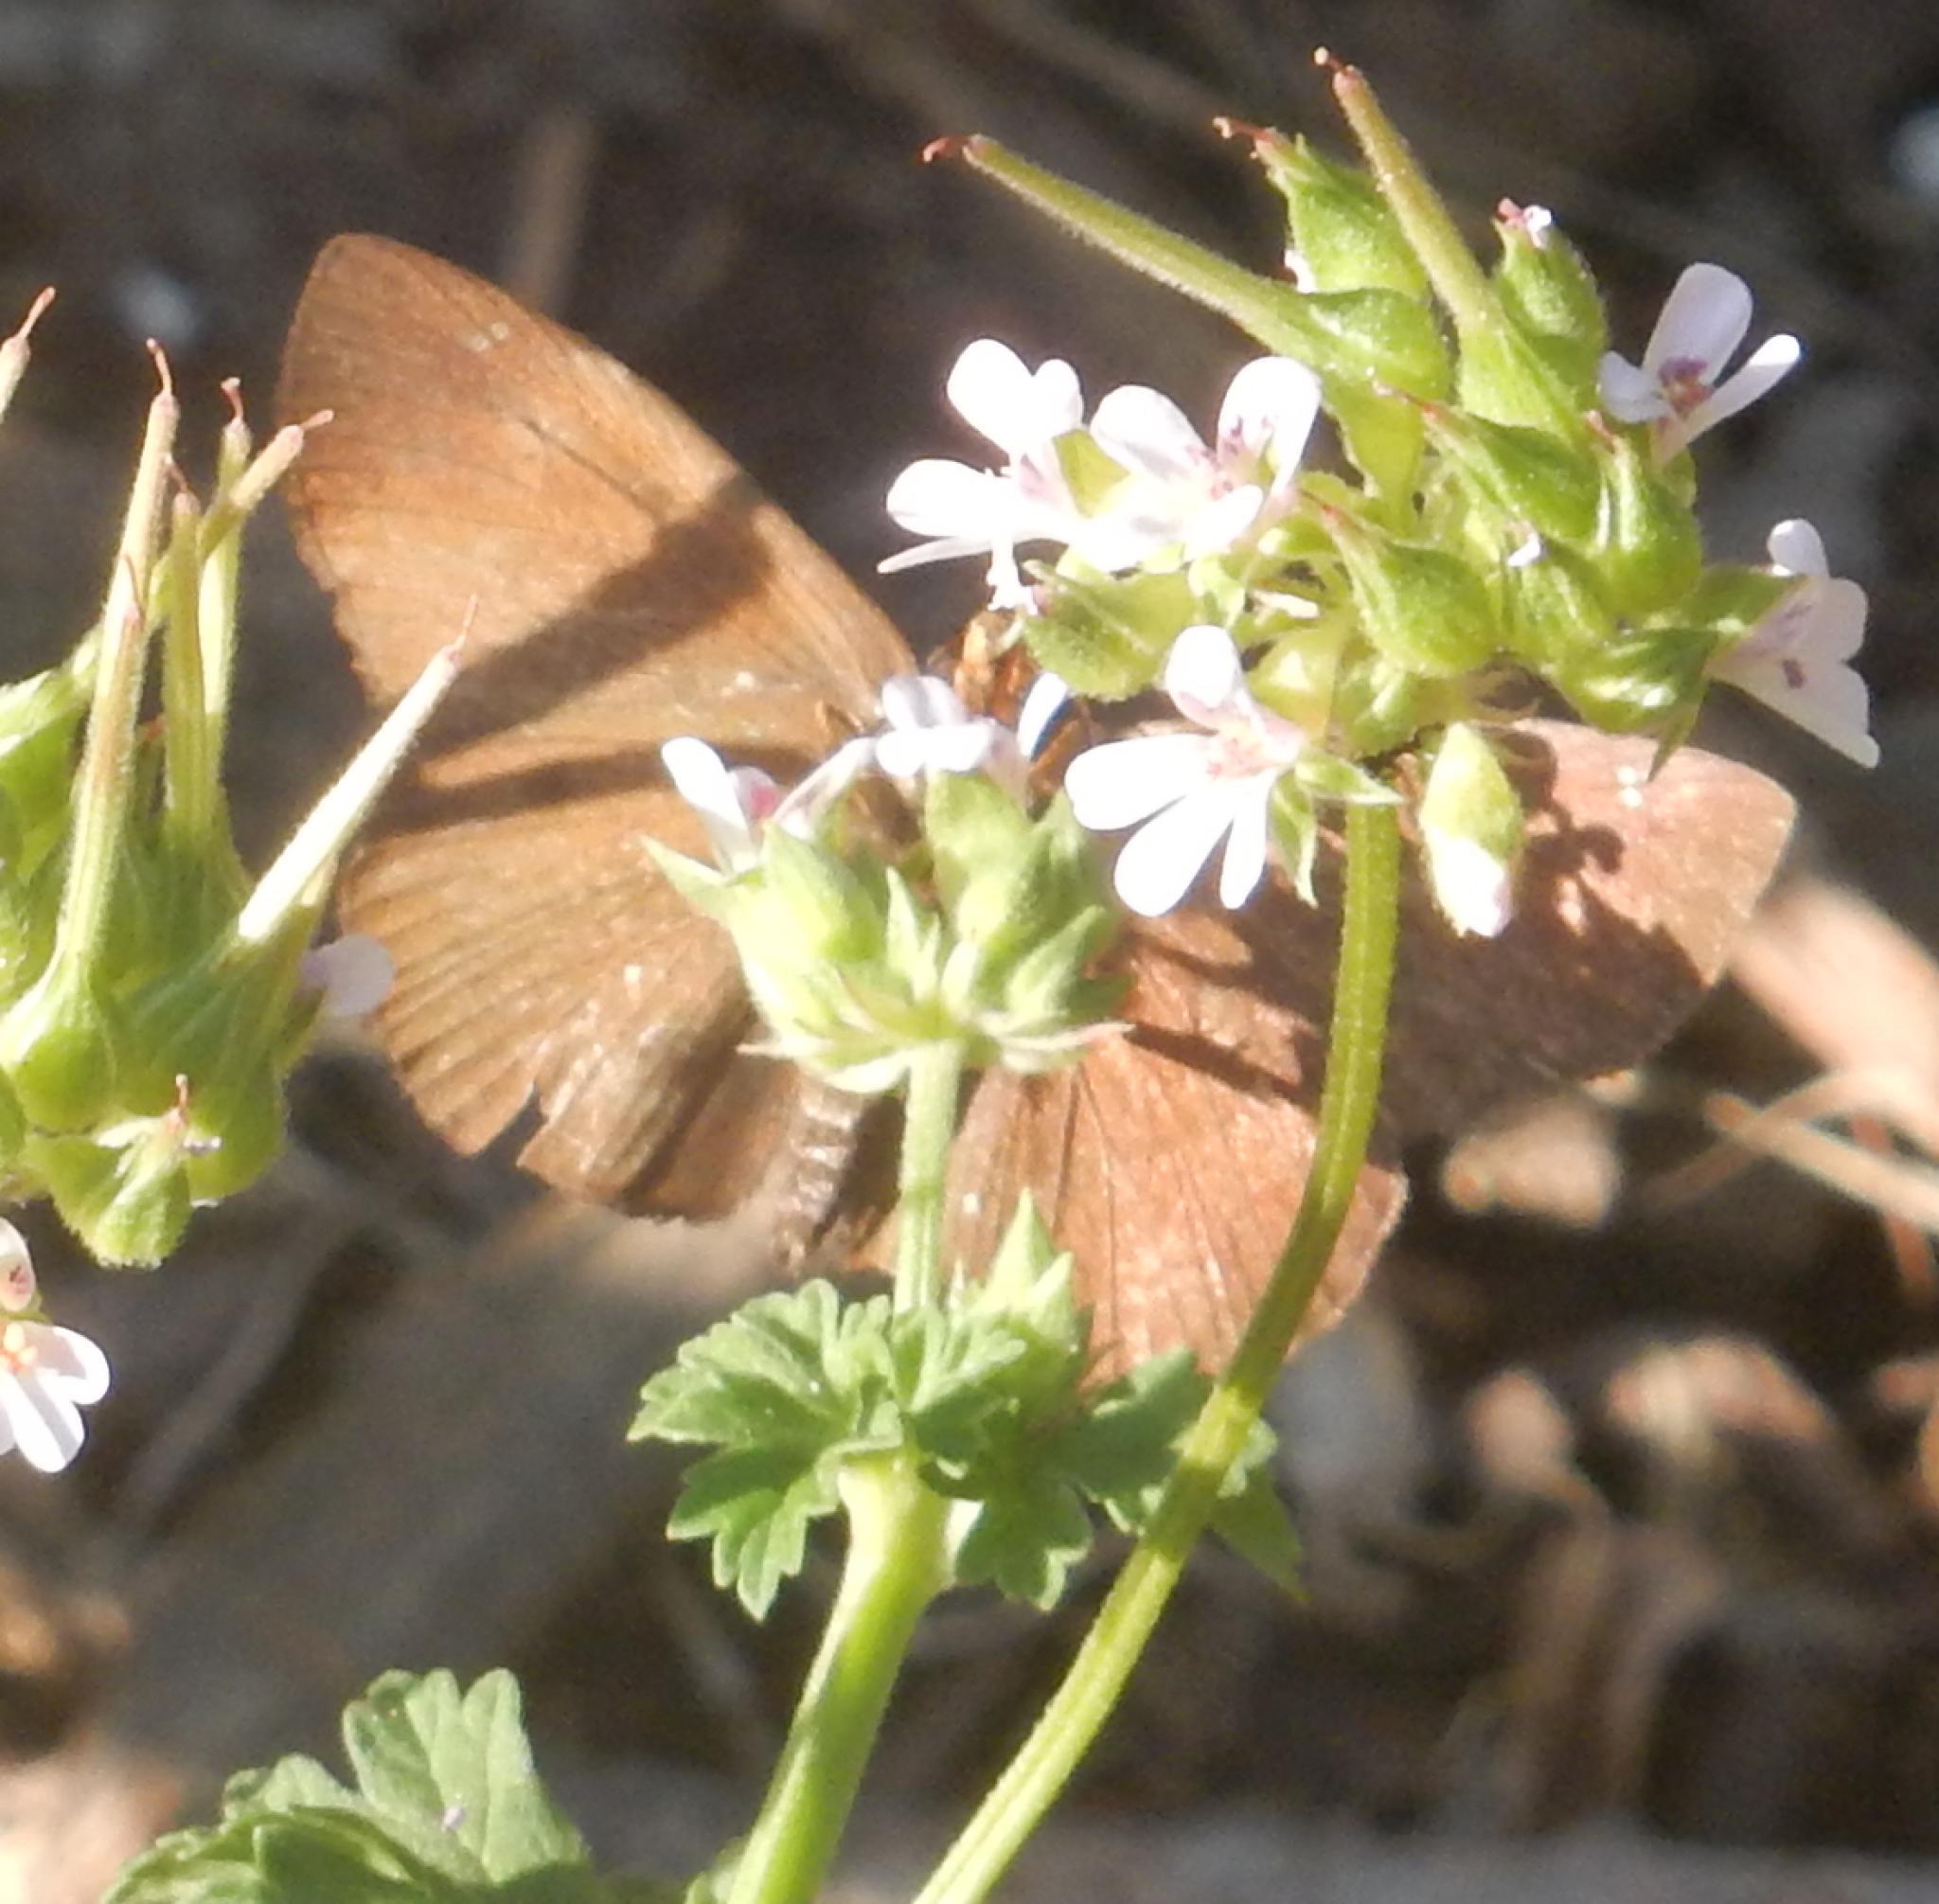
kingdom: Animalia
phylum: Arthropoda
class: Insecta
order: Lepidoptera
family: Hesperiidae
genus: Eagris
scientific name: Eagris nottoana
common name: Rufous-winged flat
